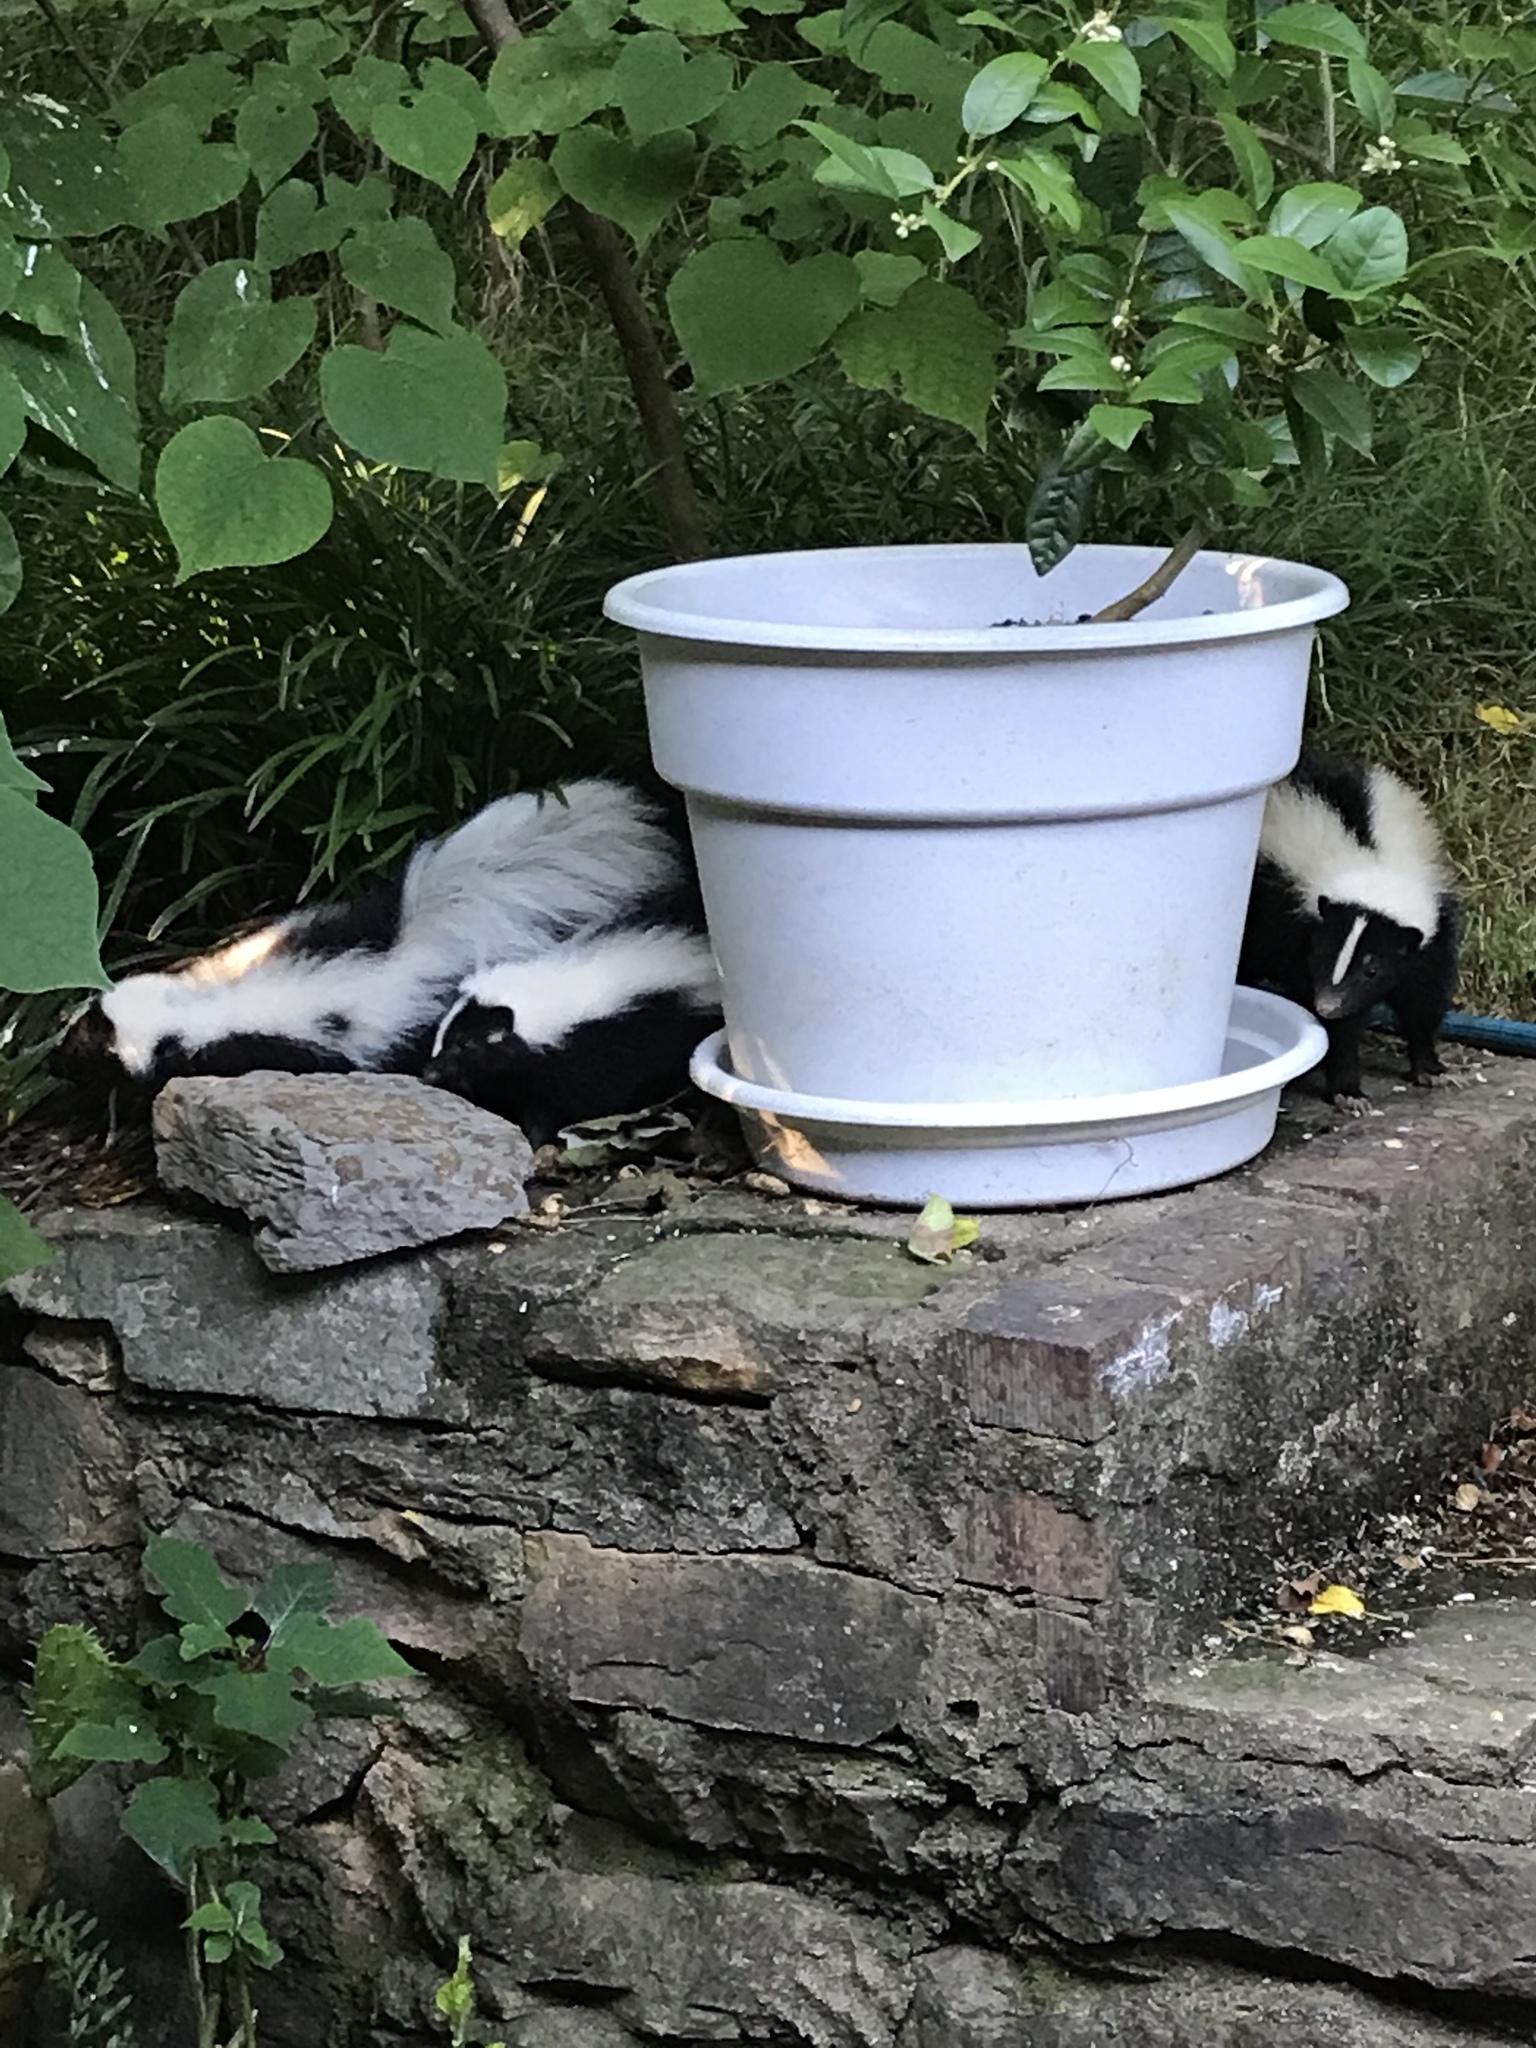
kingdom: Animalia
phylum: Chordata
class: Mammalia
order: Carnivora
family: Mephitidae
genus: Mephitis
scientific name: Mephitis mephitis
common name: Striped skunk
